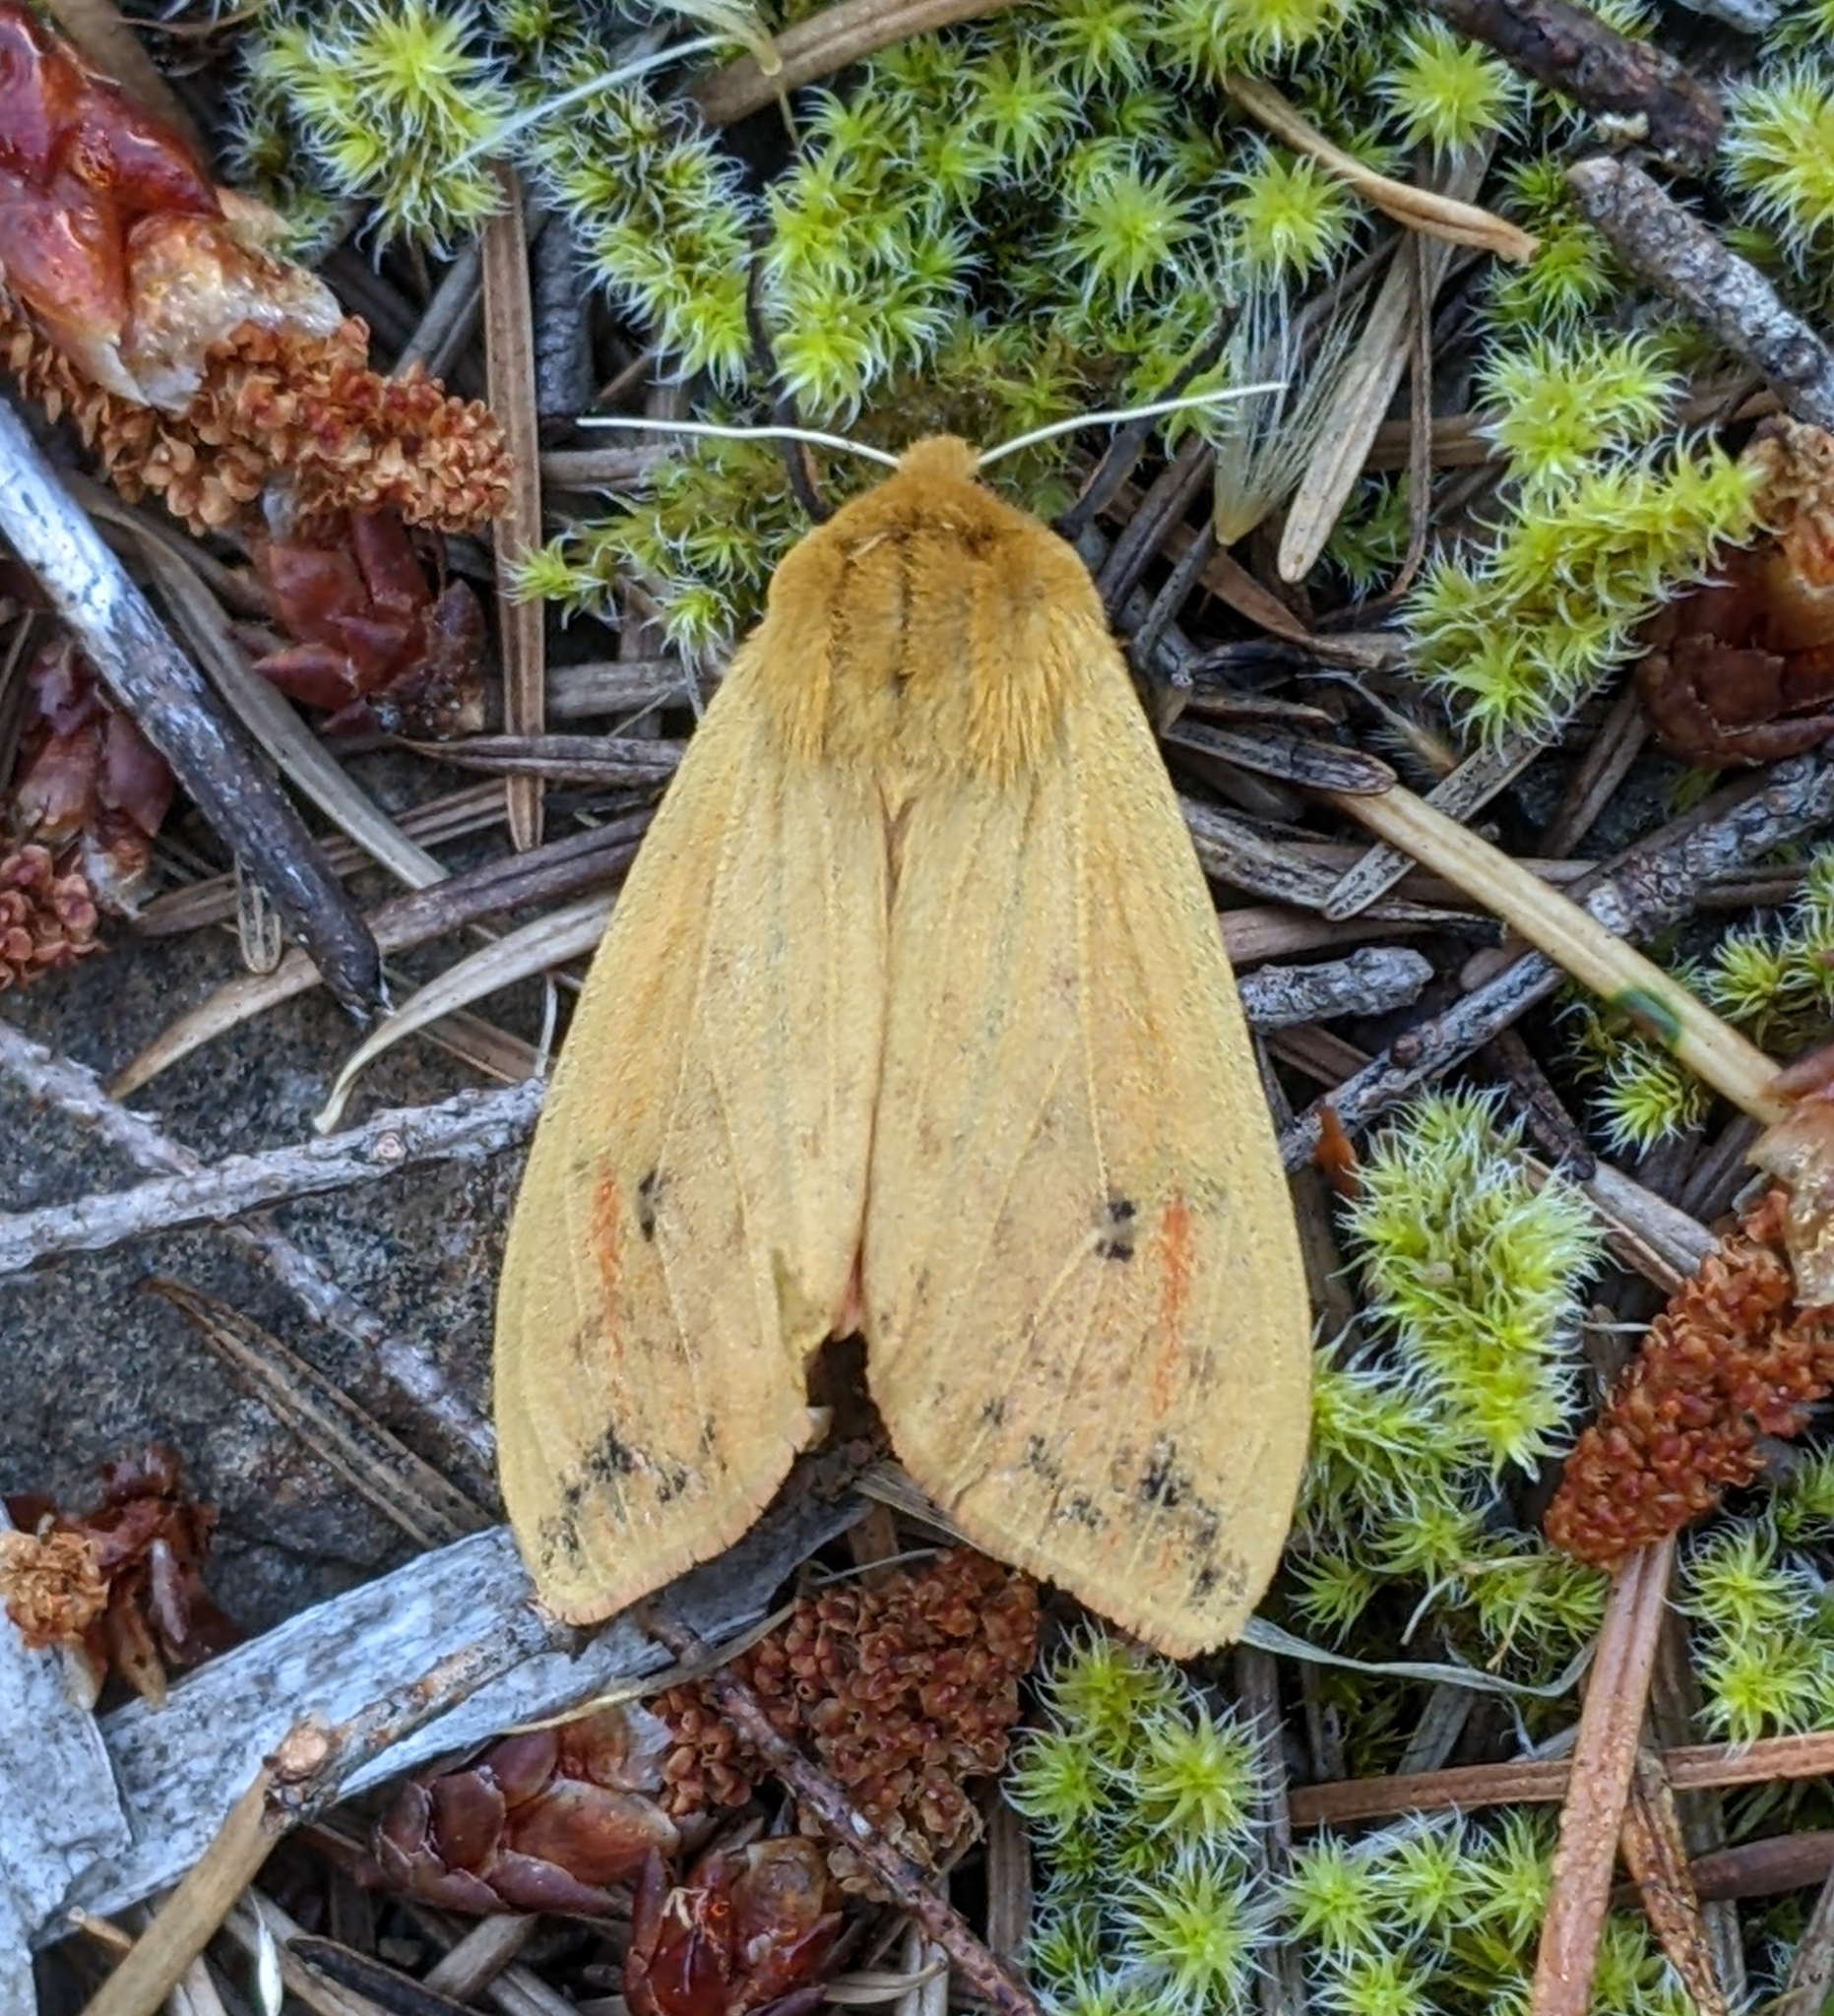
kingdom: Animalia
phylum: Arthropoda
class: Insecta
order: Lepidoptera
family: Erebidae
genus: Pyrrharctia
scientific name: Pyrrharctia isabella
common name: Isabella tiger moth
